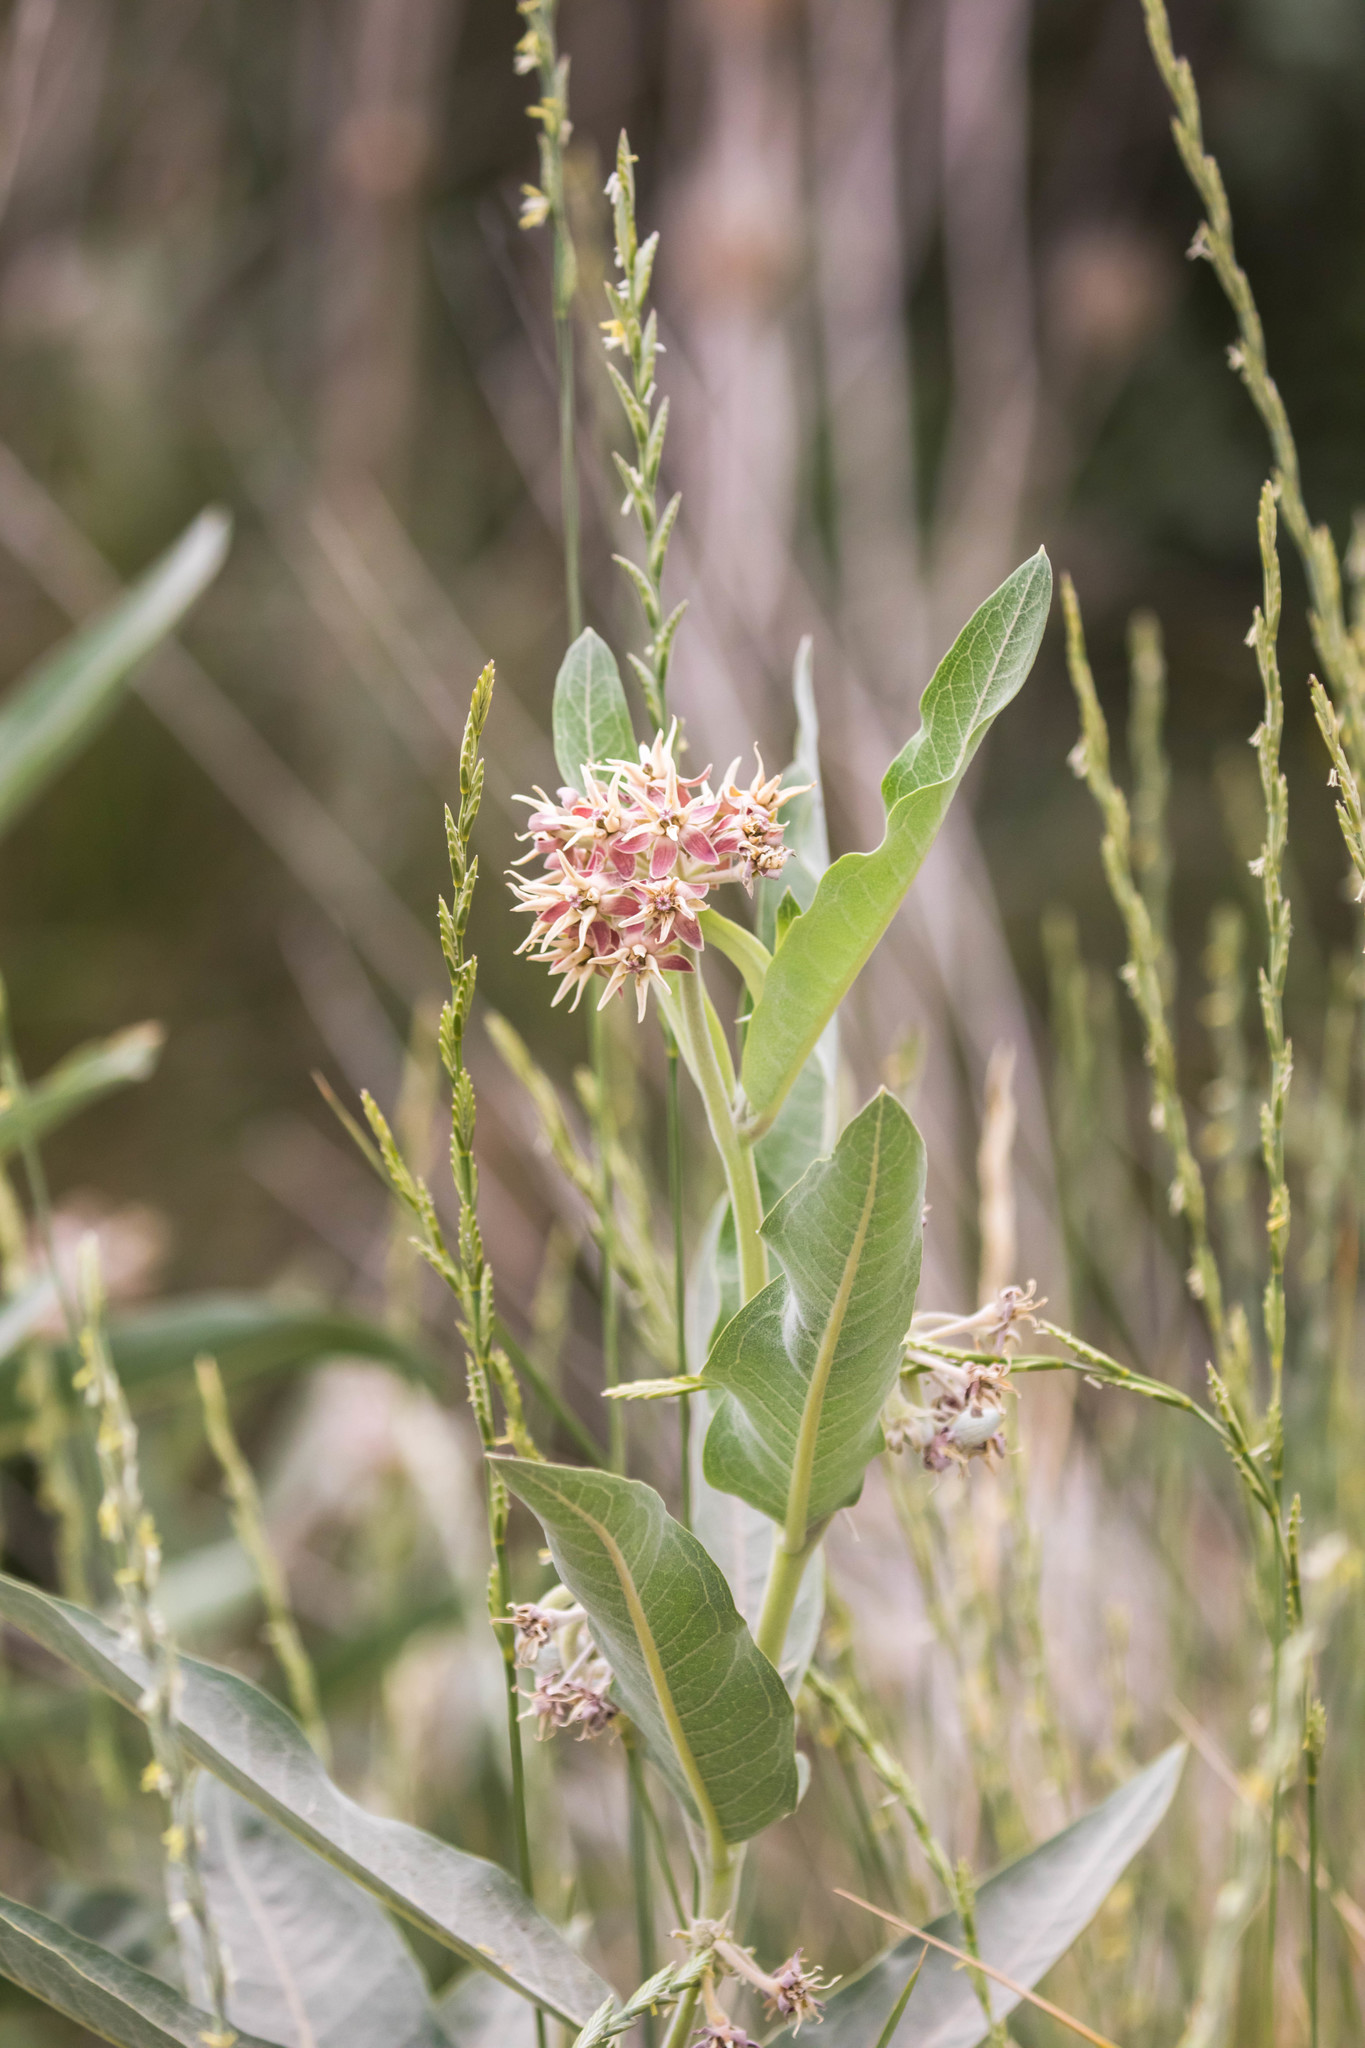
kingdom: Plantae
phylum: Tracheophyta
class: Magnoliopsida
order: Gentianales
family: Apocynaceae
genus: Asclepias
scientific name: Asclepias speciosa
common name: Showy milkweed
